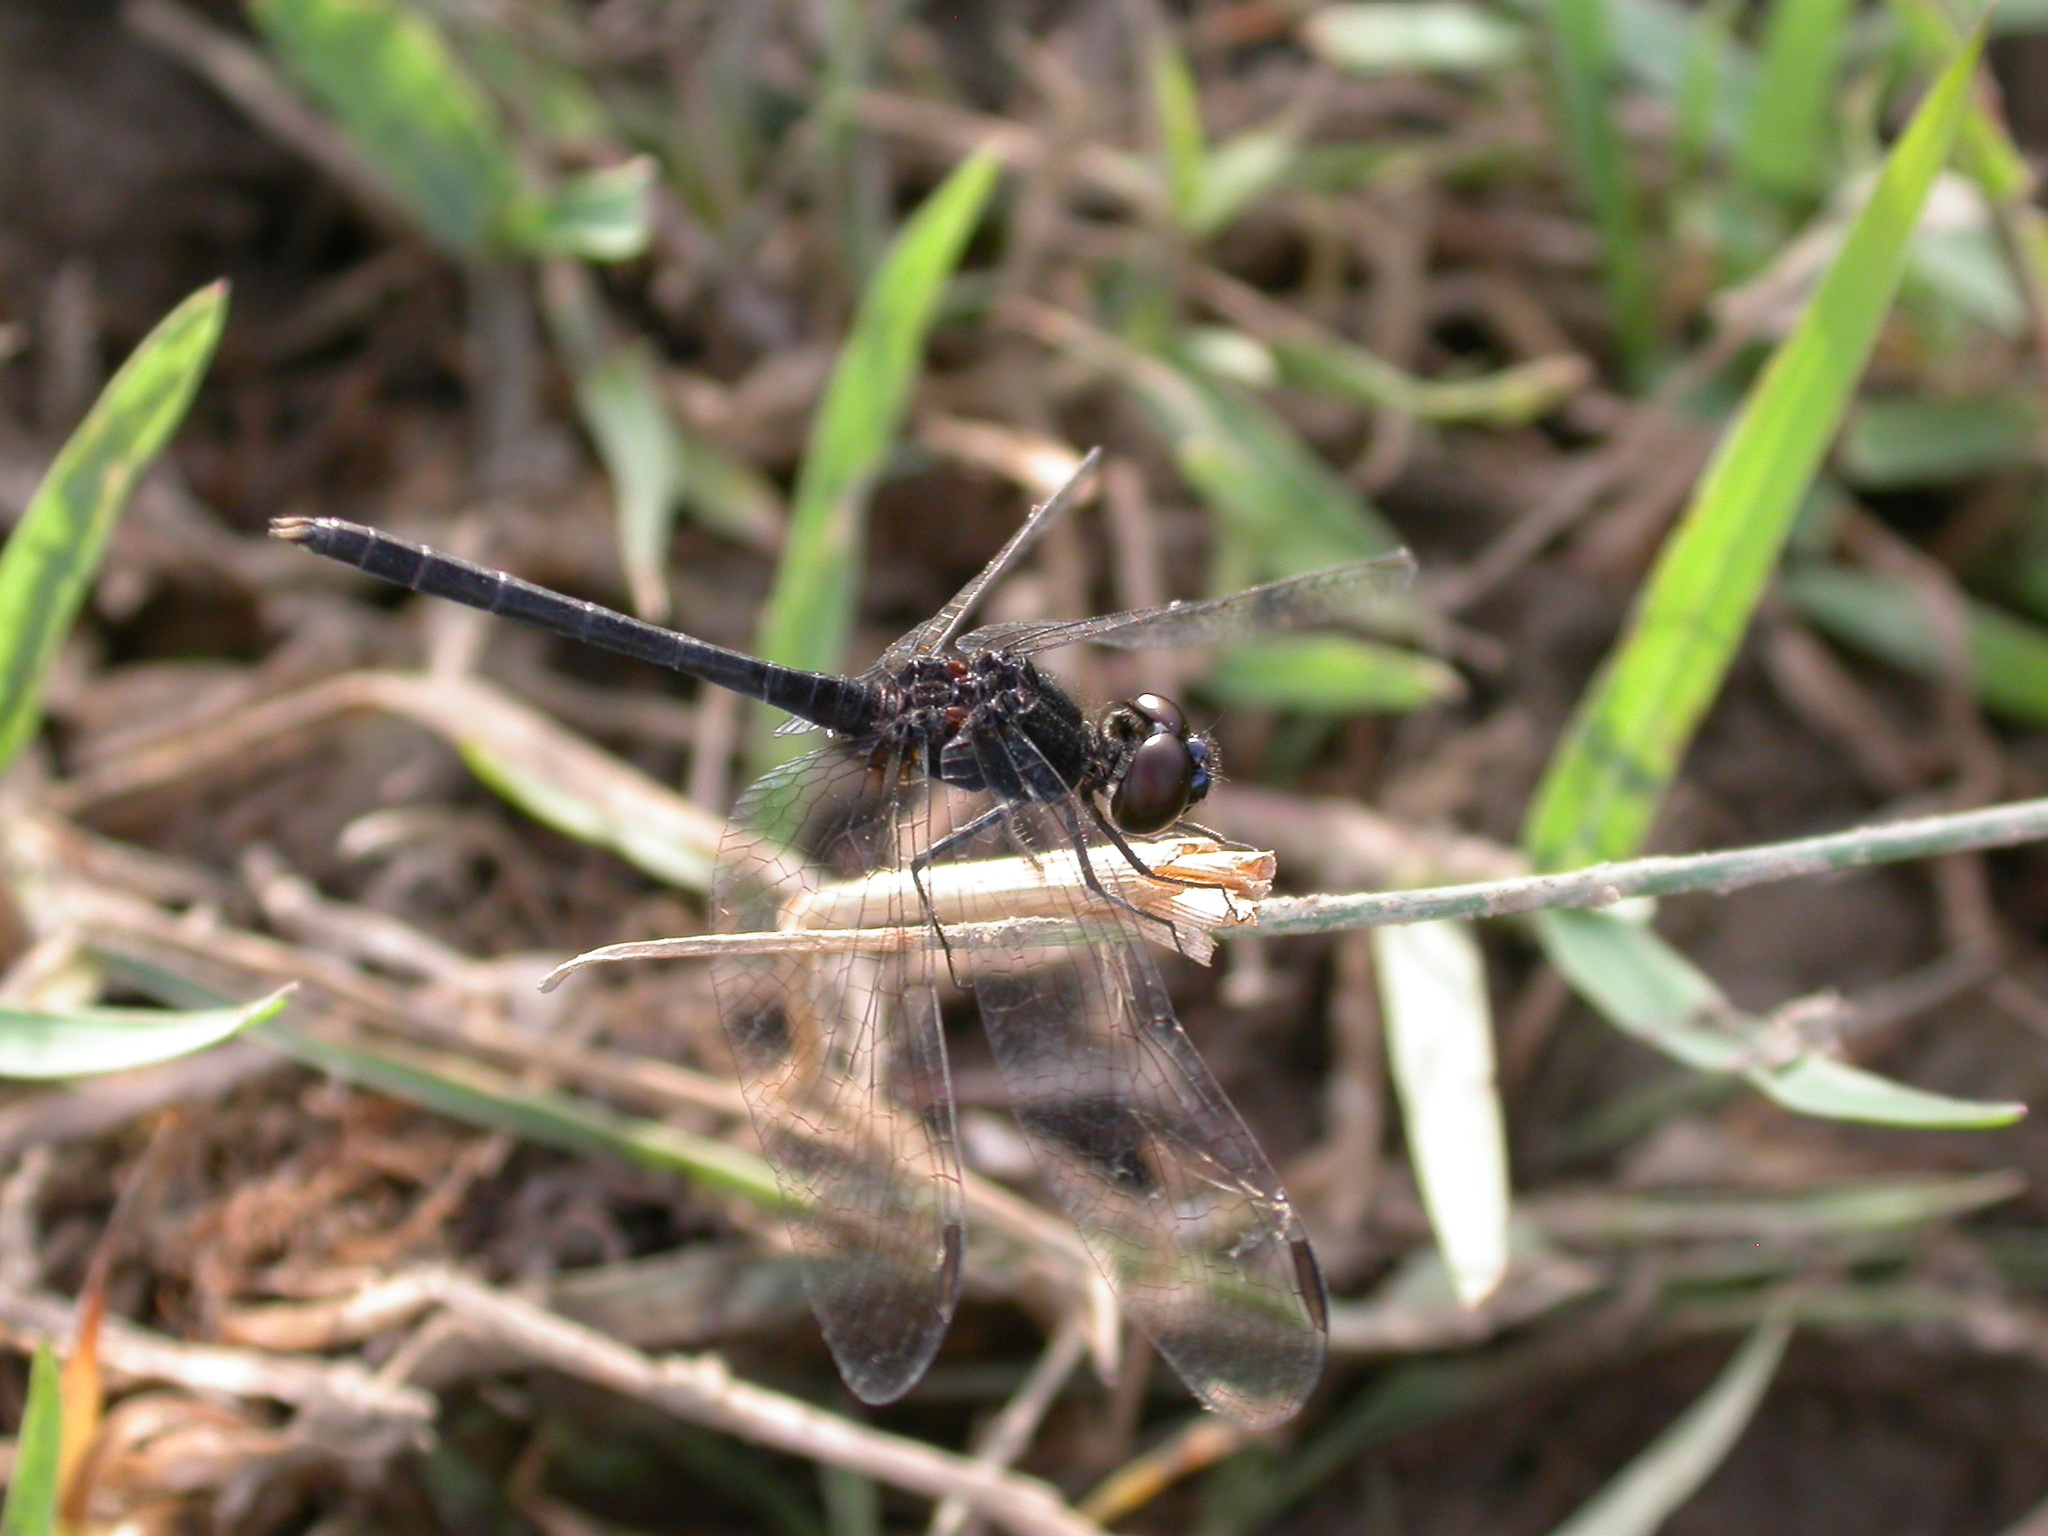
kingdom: Animalia
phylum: Arthropoda
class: Insecta
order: Odonata
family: Libellulidae
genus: Diplacodes
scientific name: Diplacodes lefebvrii
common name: Black percher
